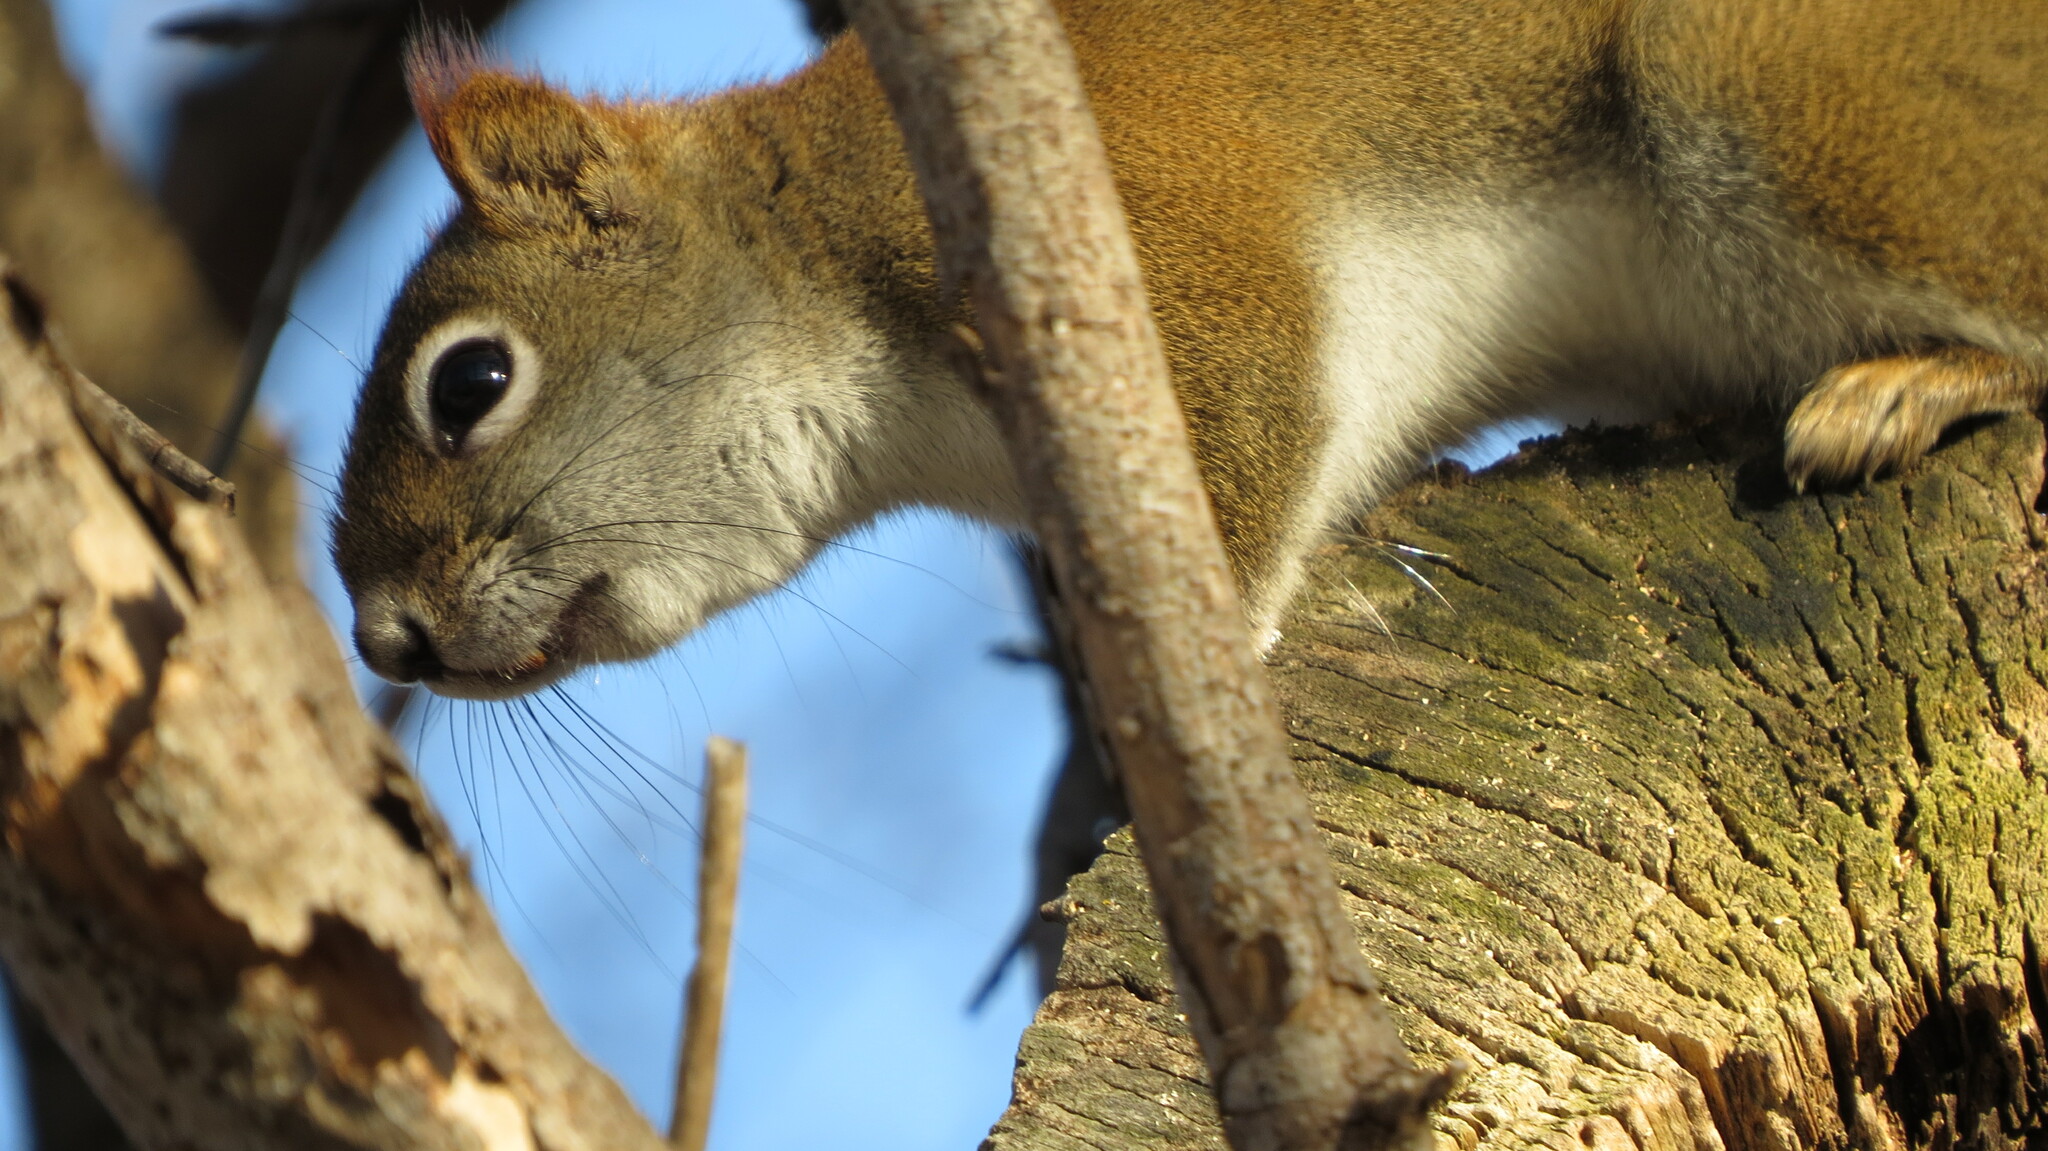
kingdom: Animalia
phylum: Chordata
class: Mammalia
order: Rodentia
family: Sciuridae
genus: Tamiasciurus
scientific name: Tamiasciurus hudsonicus
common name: Red squirrel
